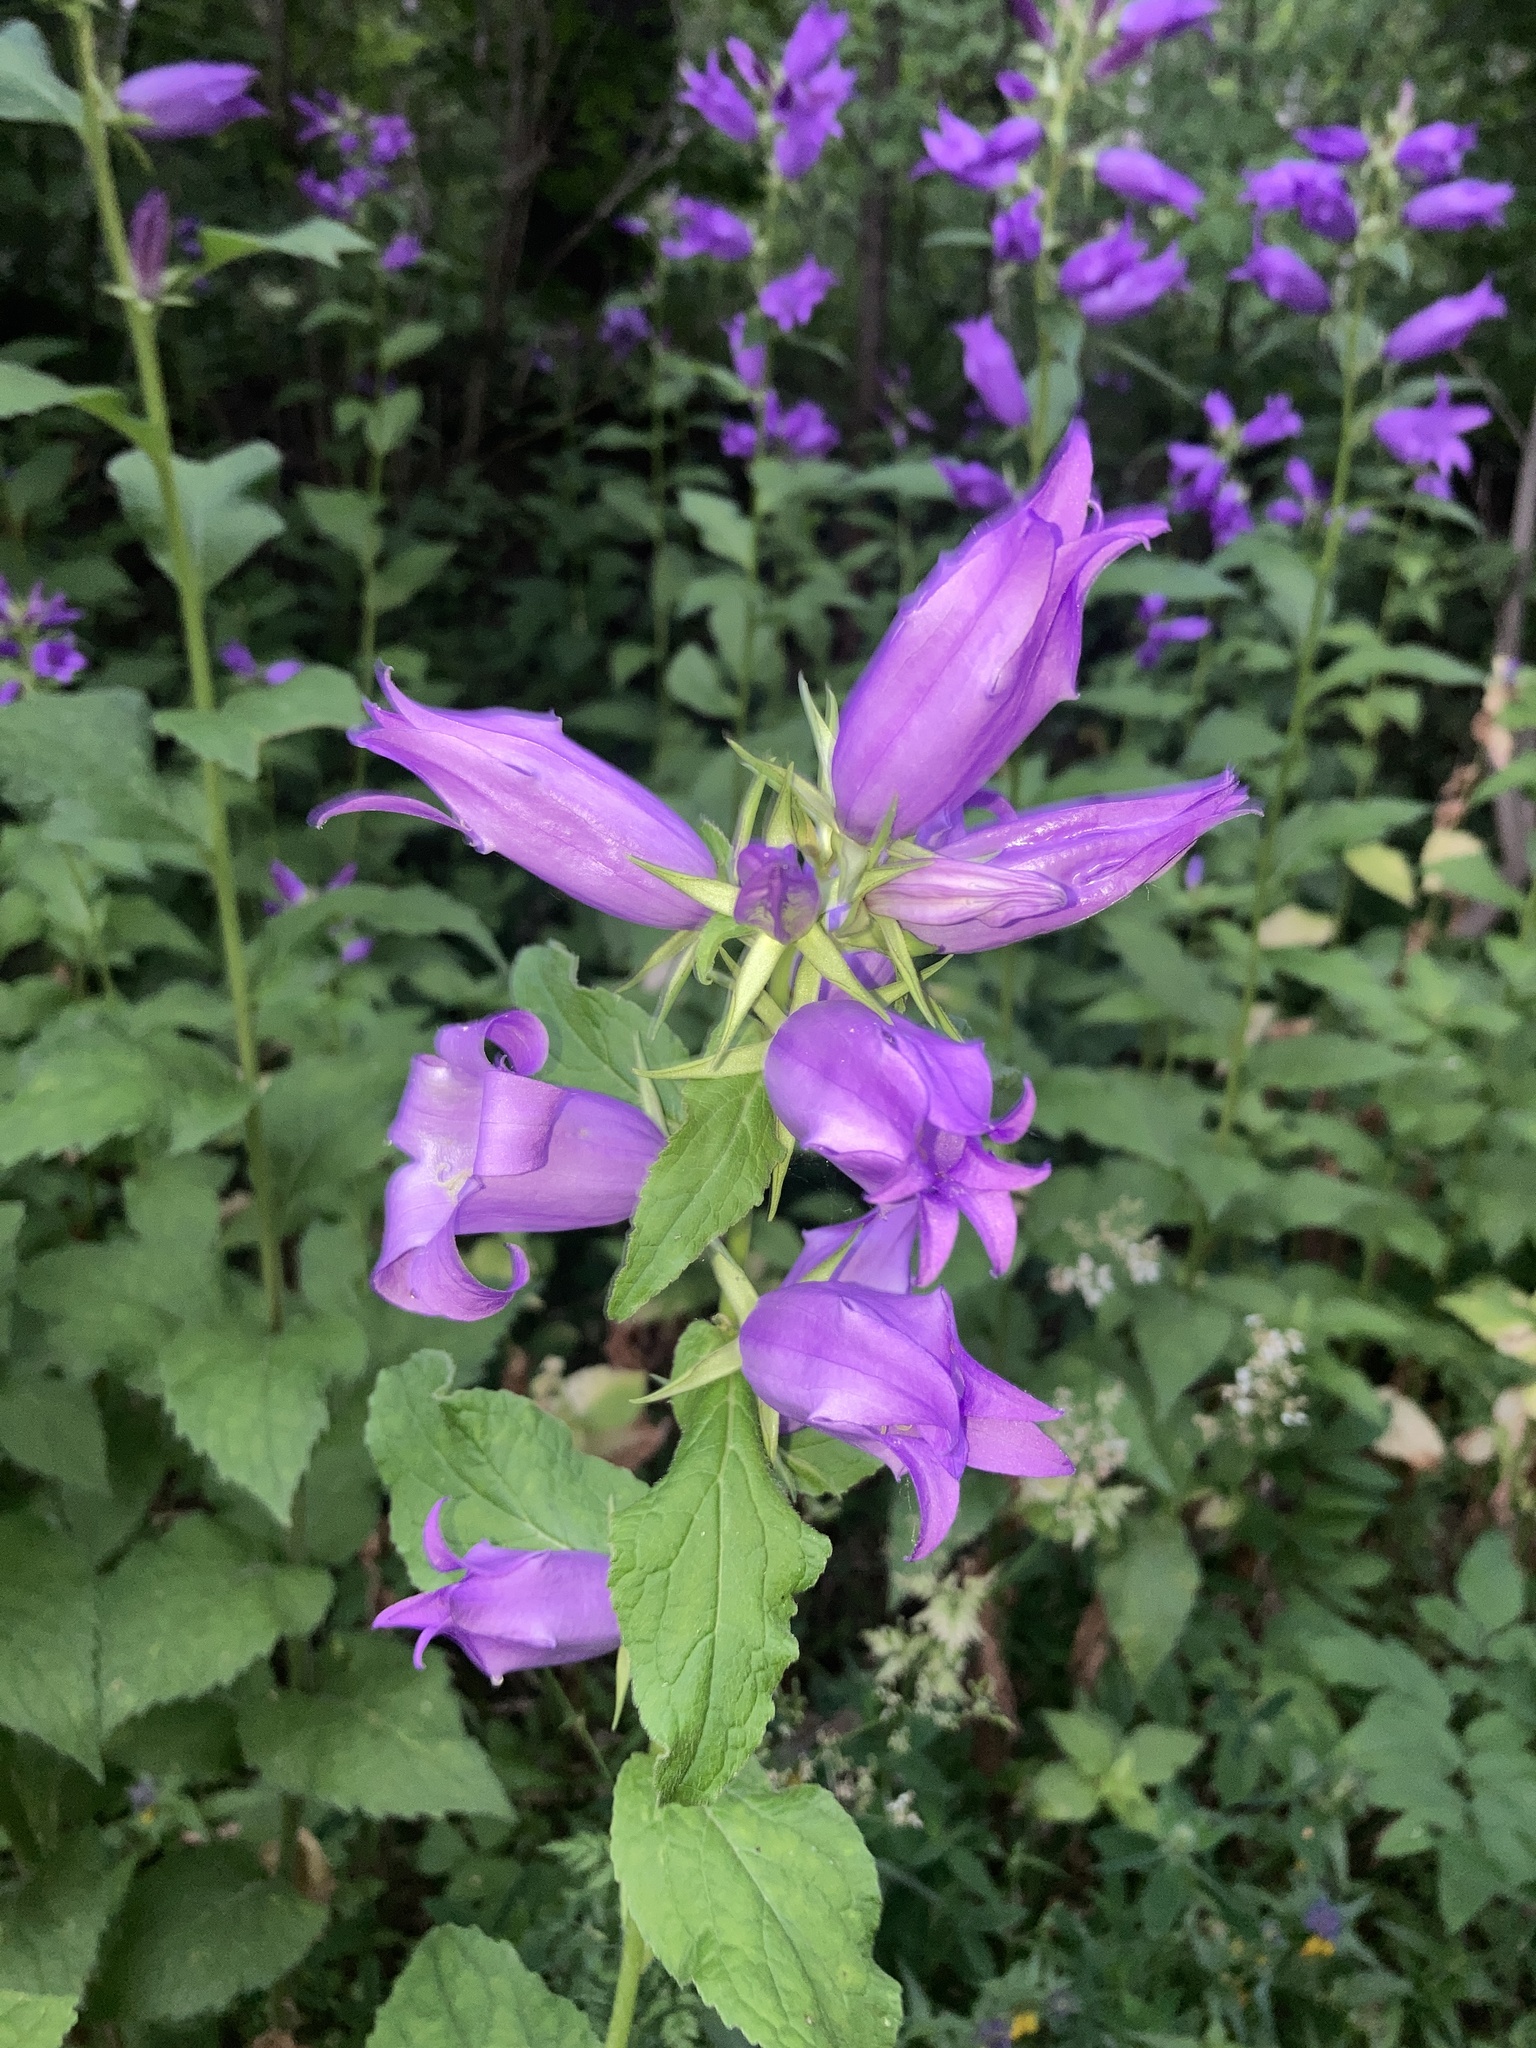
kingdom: Plantae
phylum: Tracheophyta
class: Magnoliopsida
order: Asterales
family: Campanulaceae
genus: Campanula
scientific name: Campanula latifolia
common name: Giant bellflower
